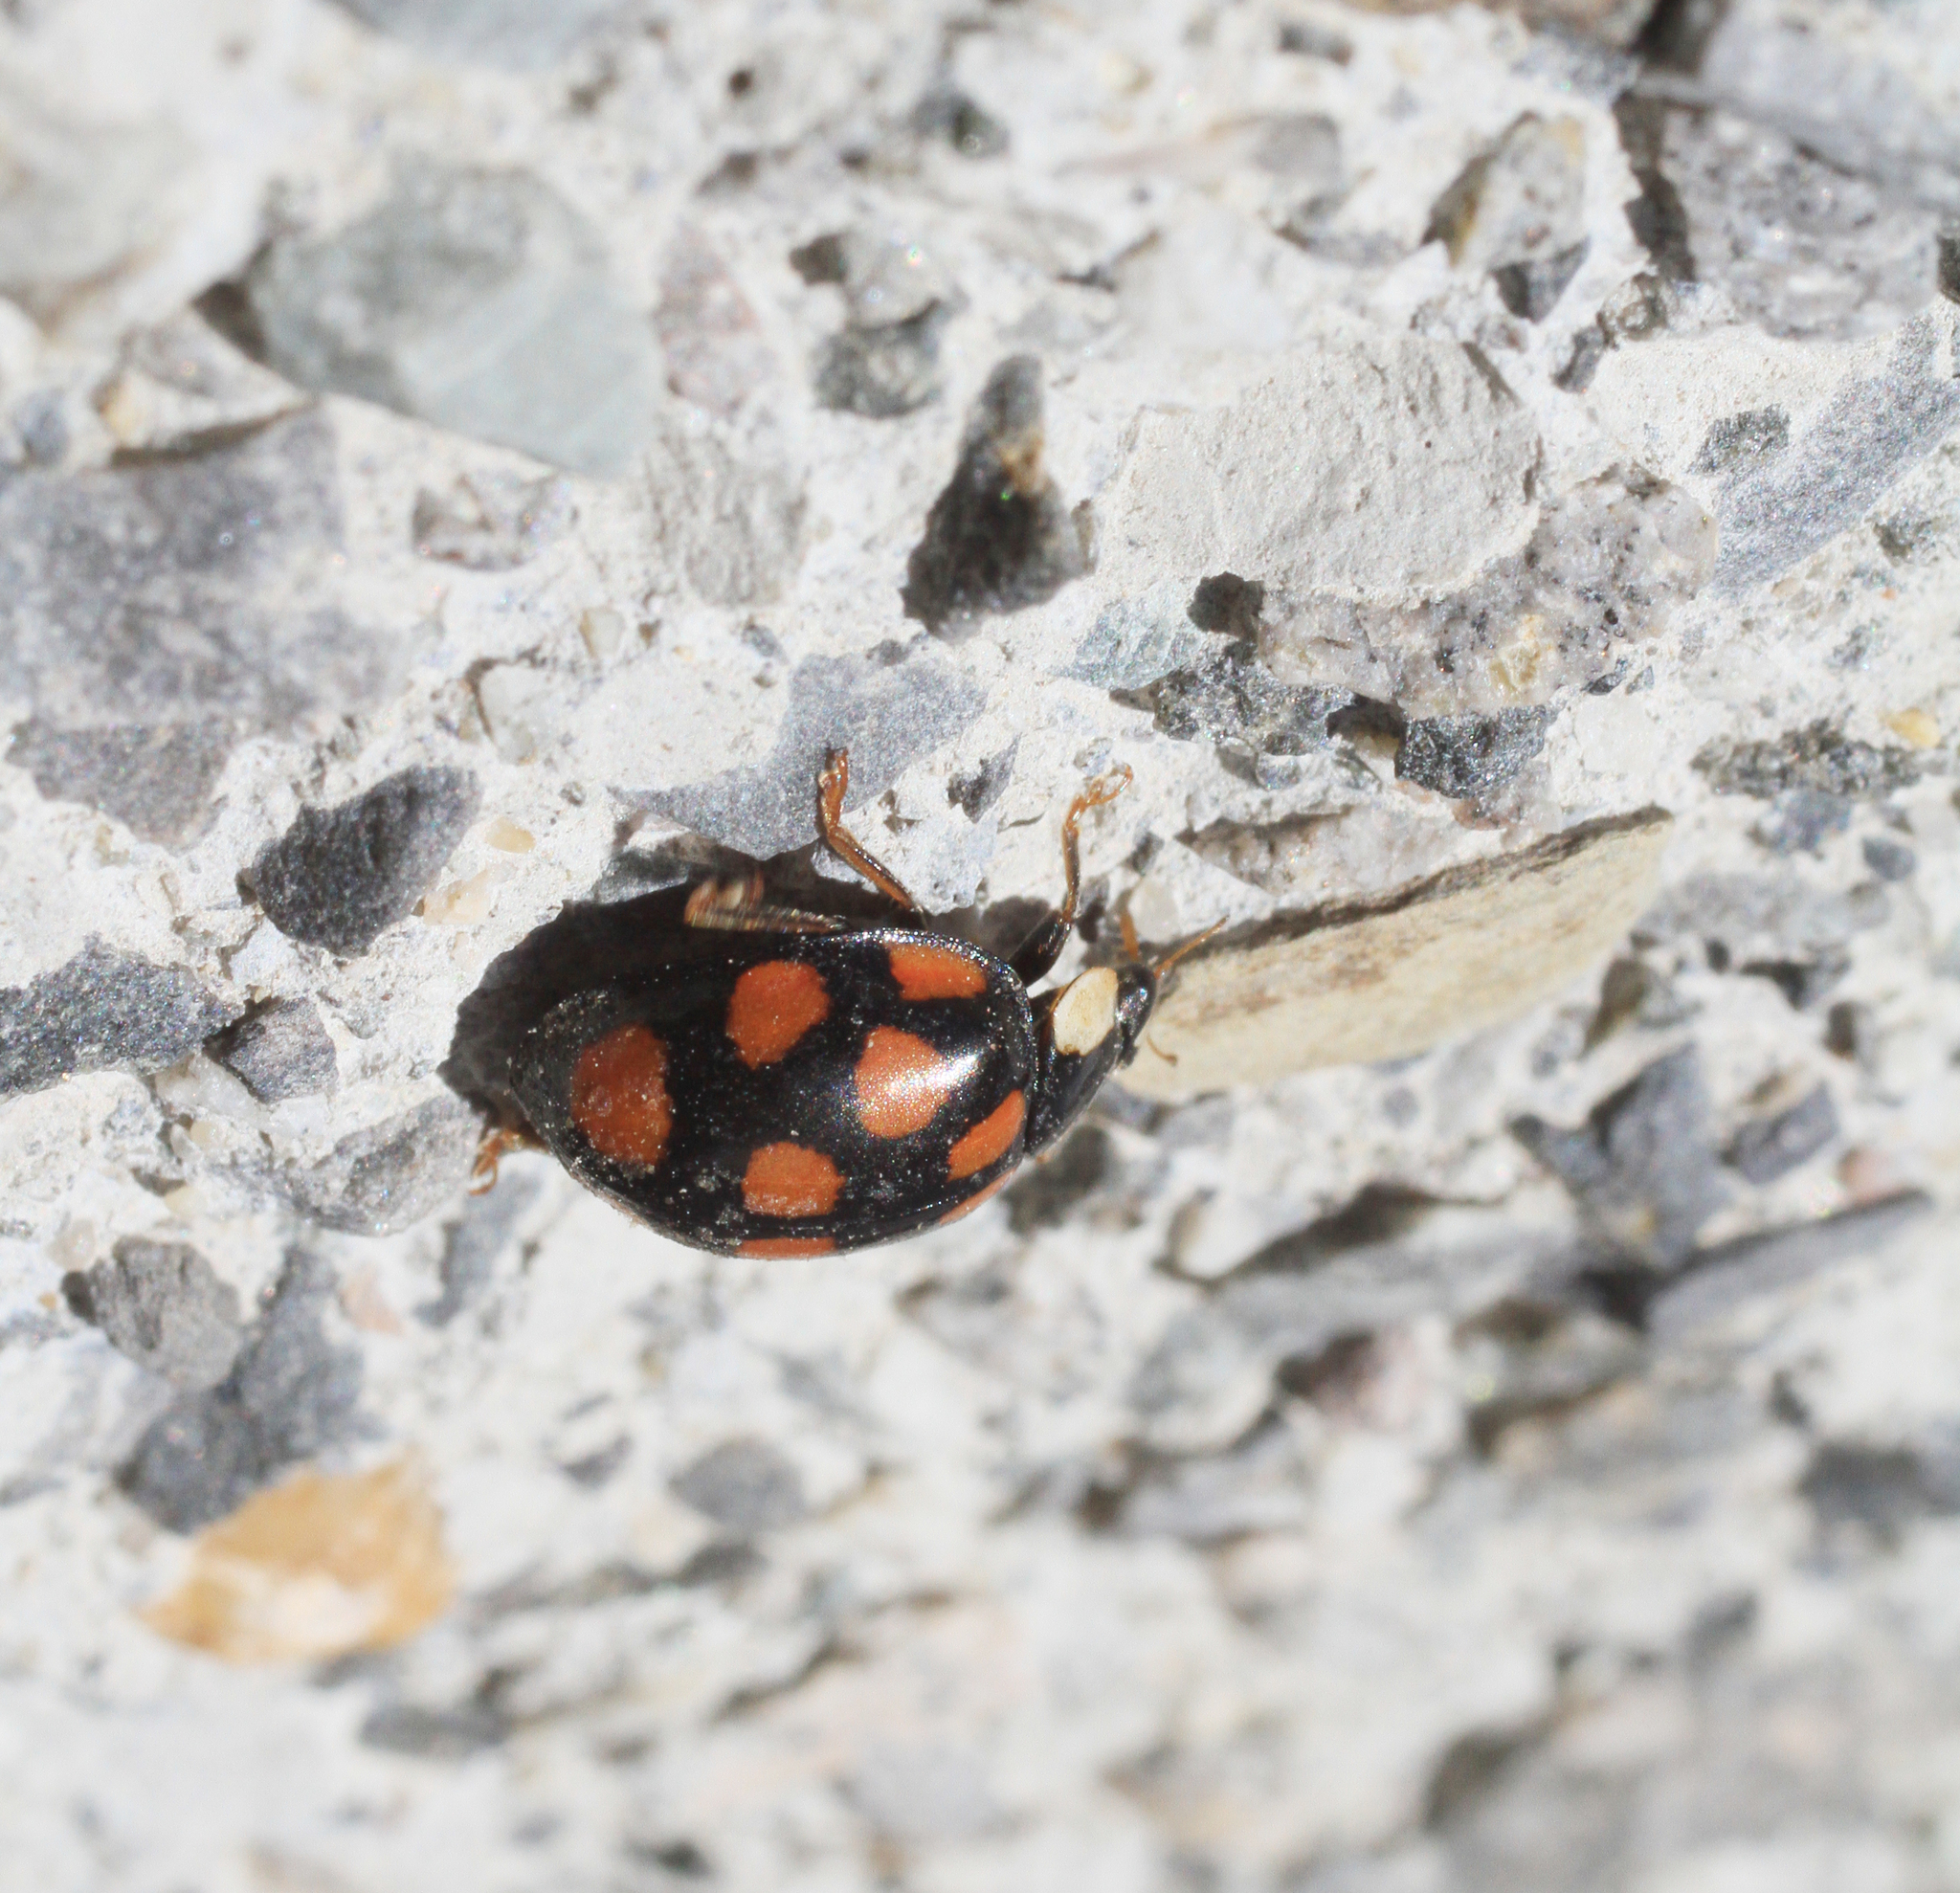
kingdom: Animalia
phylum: Arthropoda
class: Insecta
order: Coleoptera
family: Coccinellidae
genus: Harmonia
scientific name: Harmonia axyridis
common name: Harlequin ladybird
